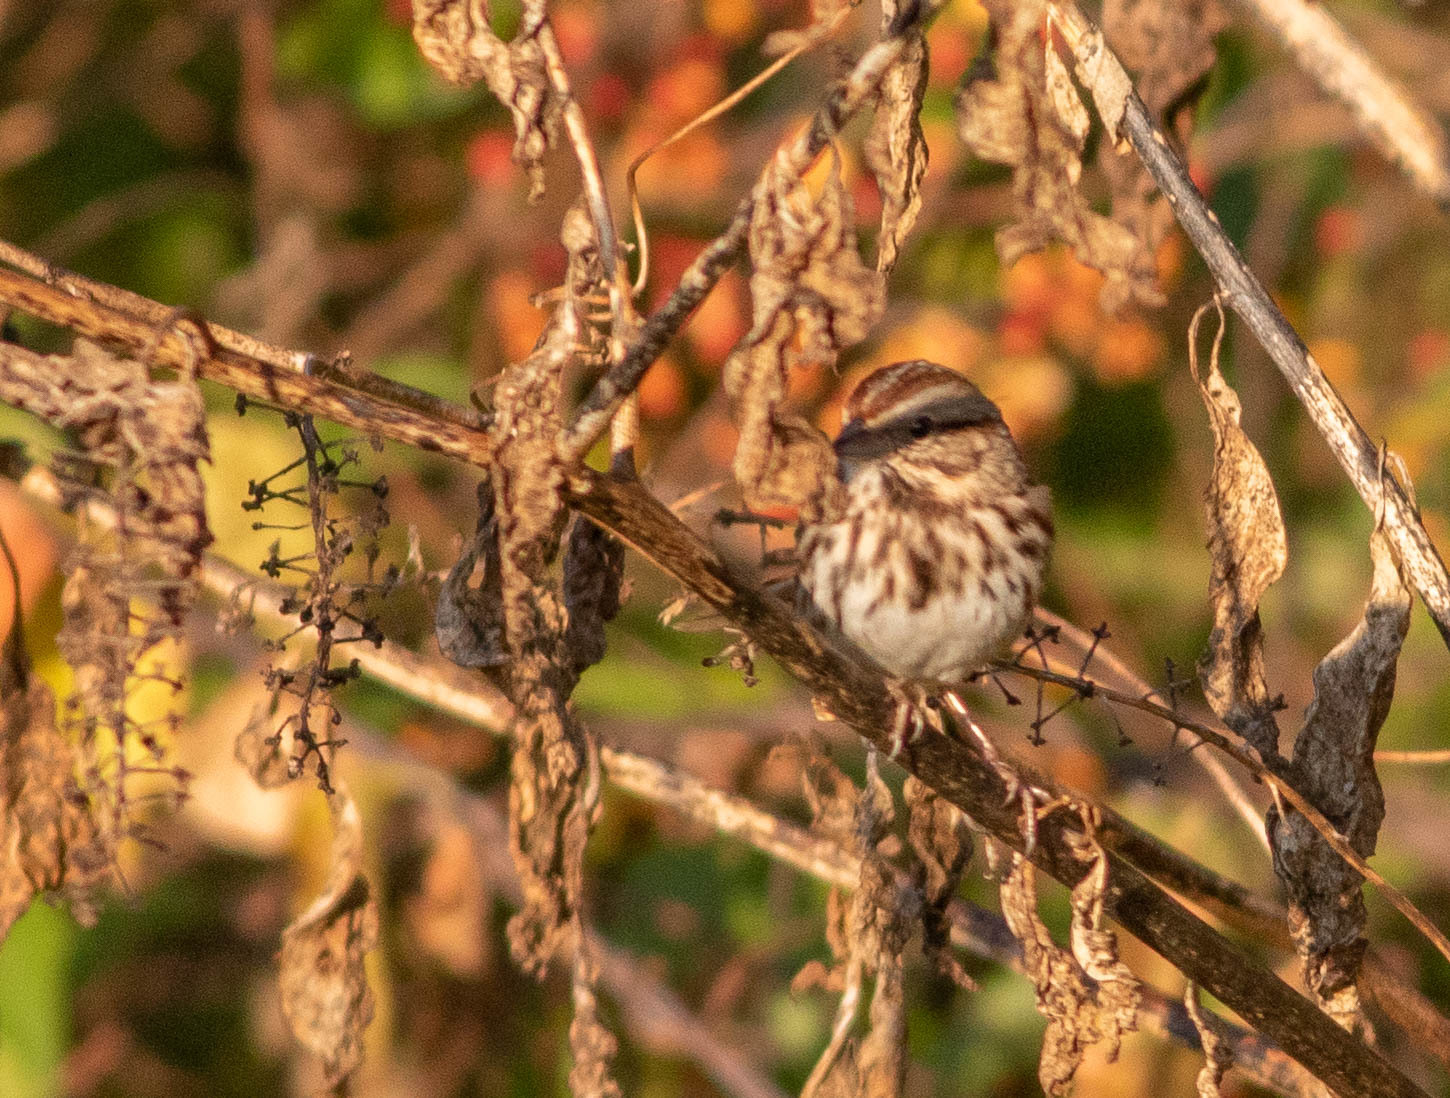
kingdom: Animalia
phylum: Chordata
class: Aves
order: Passeriformes
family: Passerellidae
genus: Melospiza
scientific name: Melospiza melodia
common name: Song sparrow
